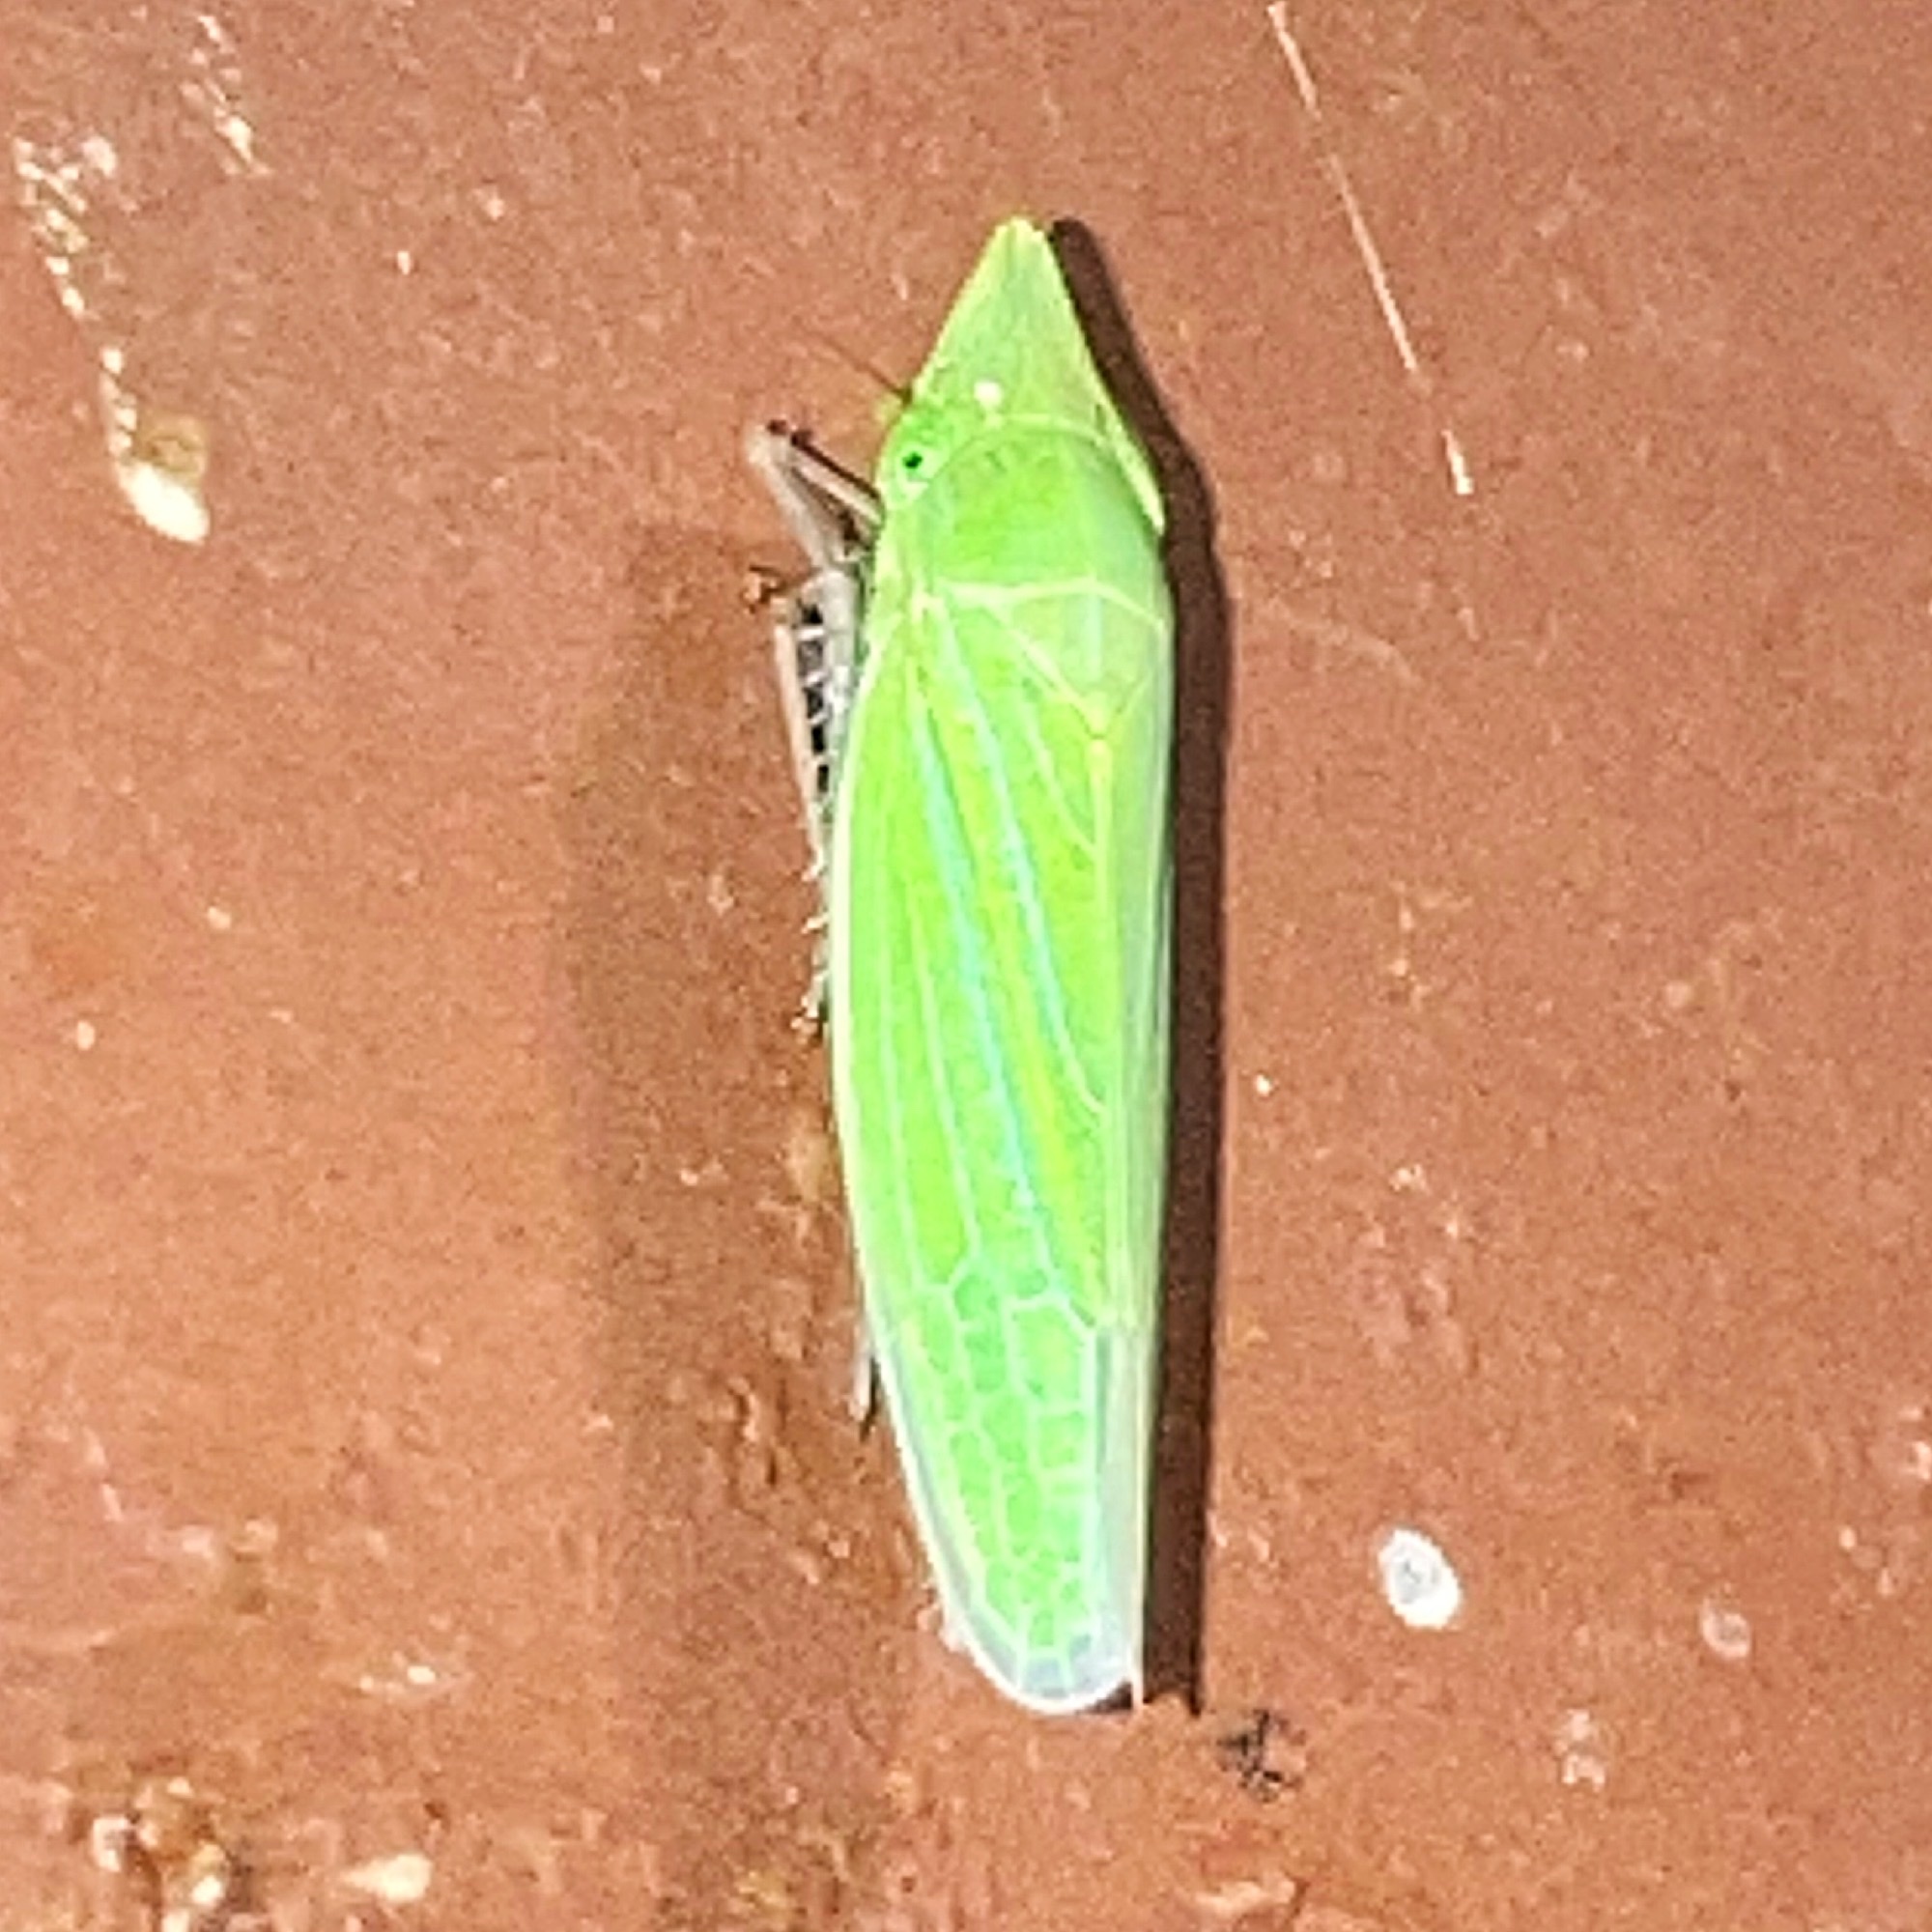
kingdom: Animalia
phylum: Arthropoda
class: Insecta
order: Hemiptera
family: Cicadellidae
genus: Draeculacephala
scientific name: Draeculacephala robinsoni
